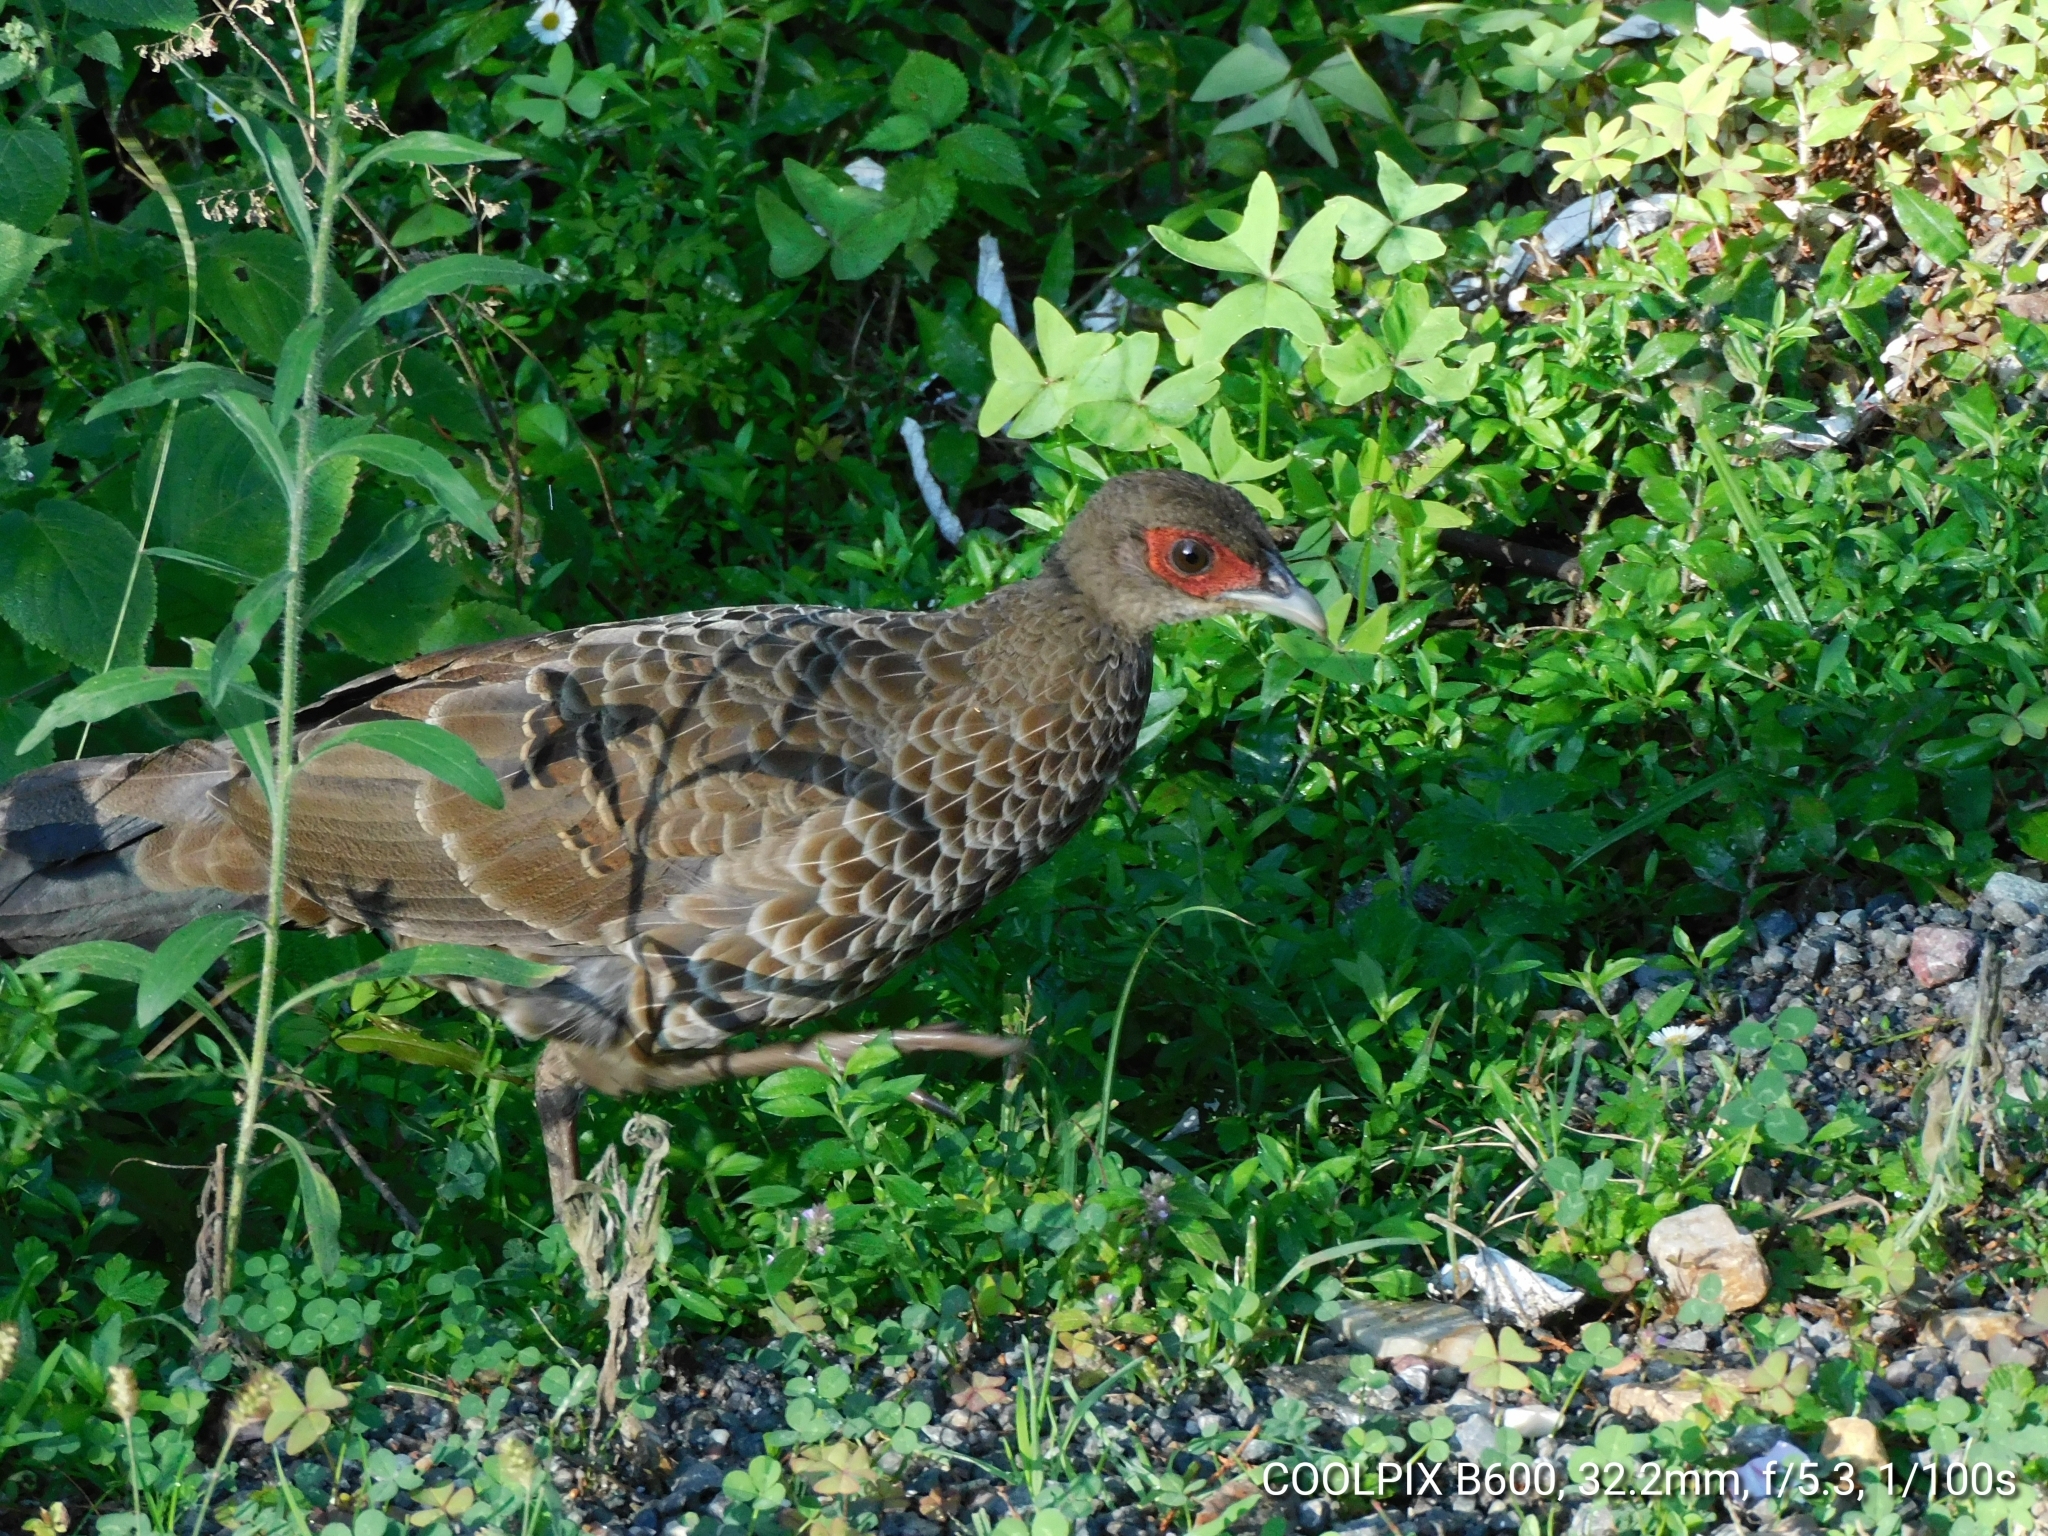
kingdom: Animalia
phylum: Chordata
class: Aves
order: Galliformes
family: Phasianidae
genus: Lophura
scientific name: Lophura leucomelanos
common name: Kalij pheasant
